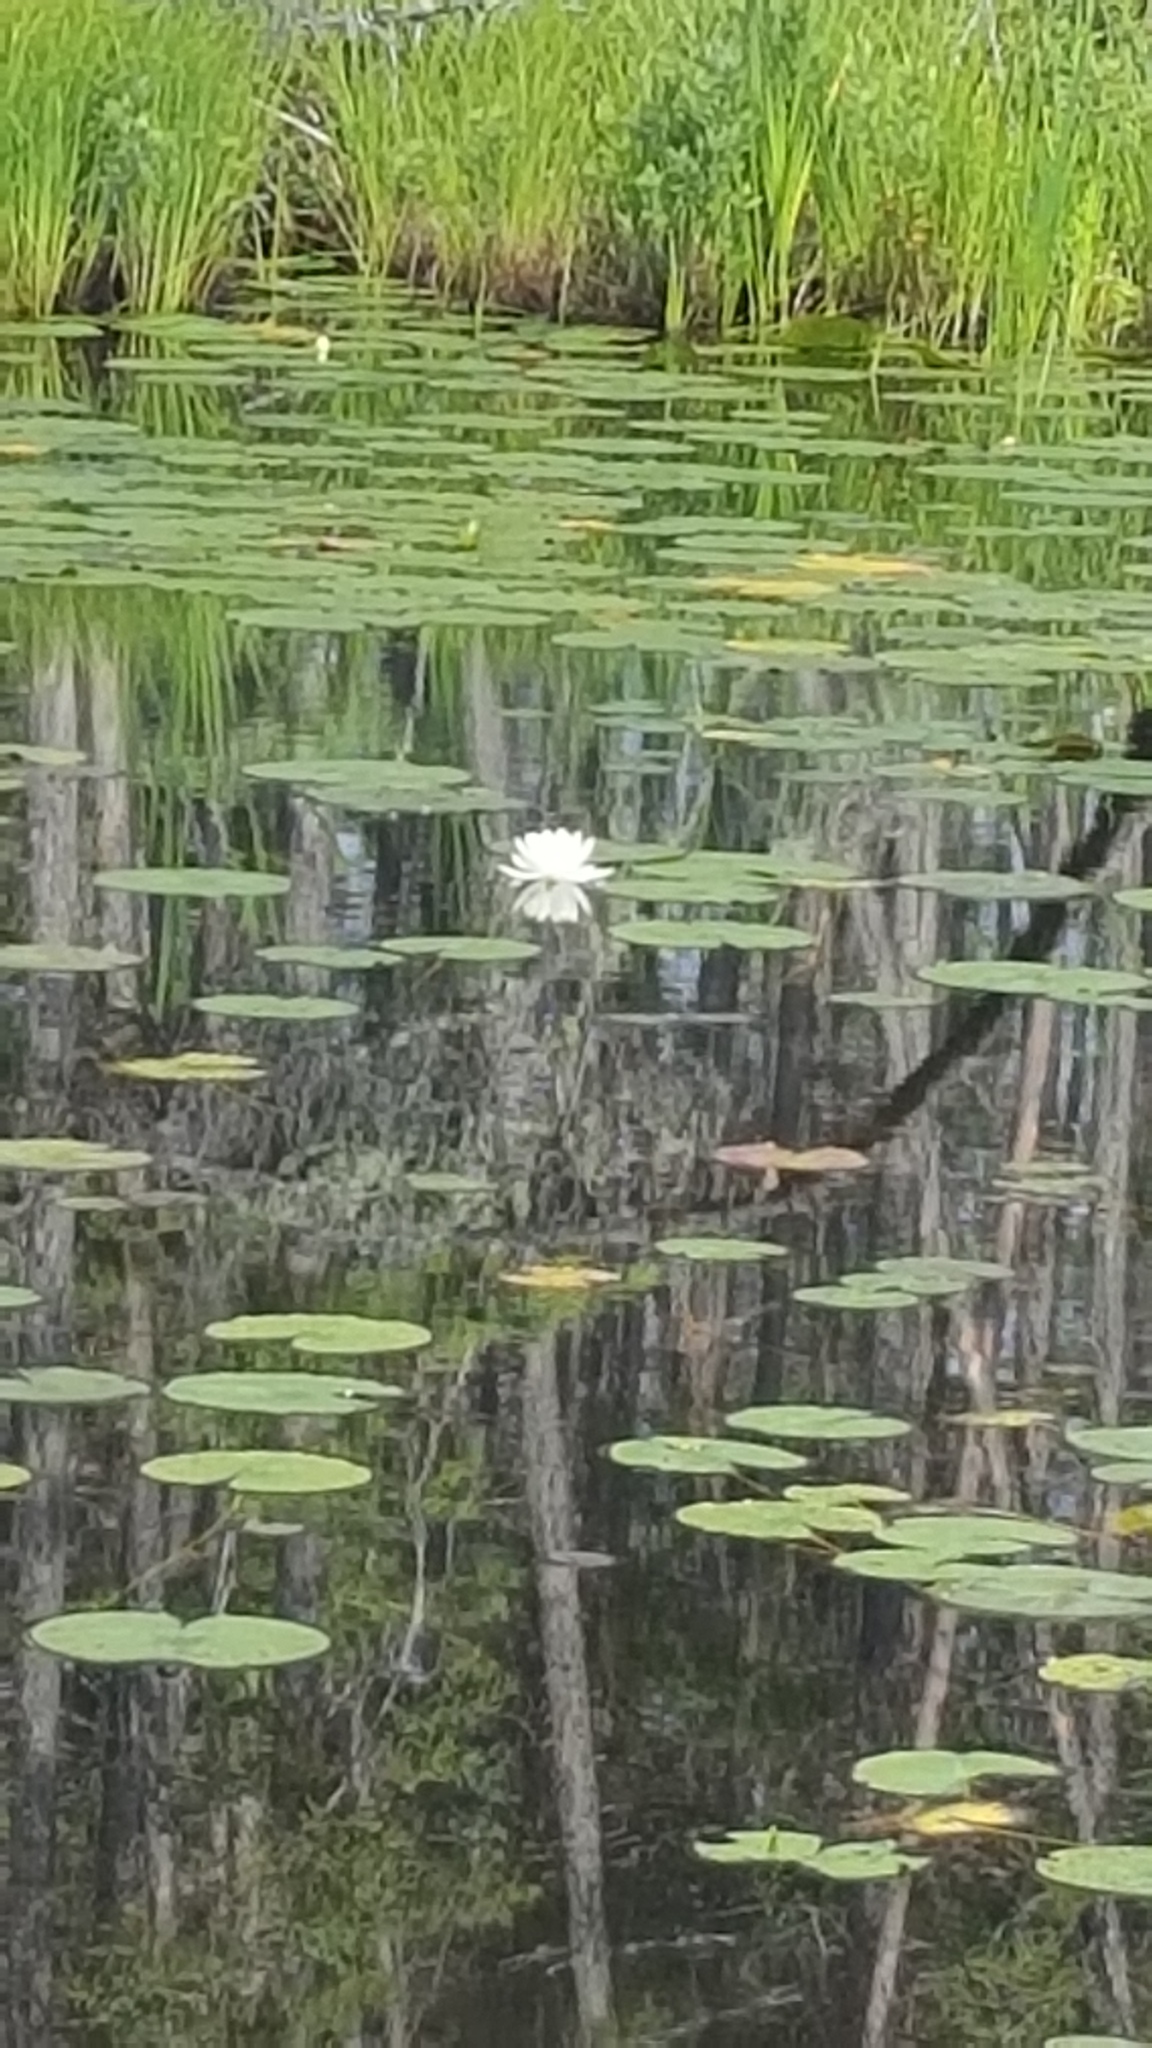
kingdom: Plantae
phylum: Tracheophyta
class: Magnoliopsida
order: Nymphaeales
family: Nymphaeaceae
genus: Nymphaea
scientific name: Nymphaea odorata
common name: Fragrant water-lily
